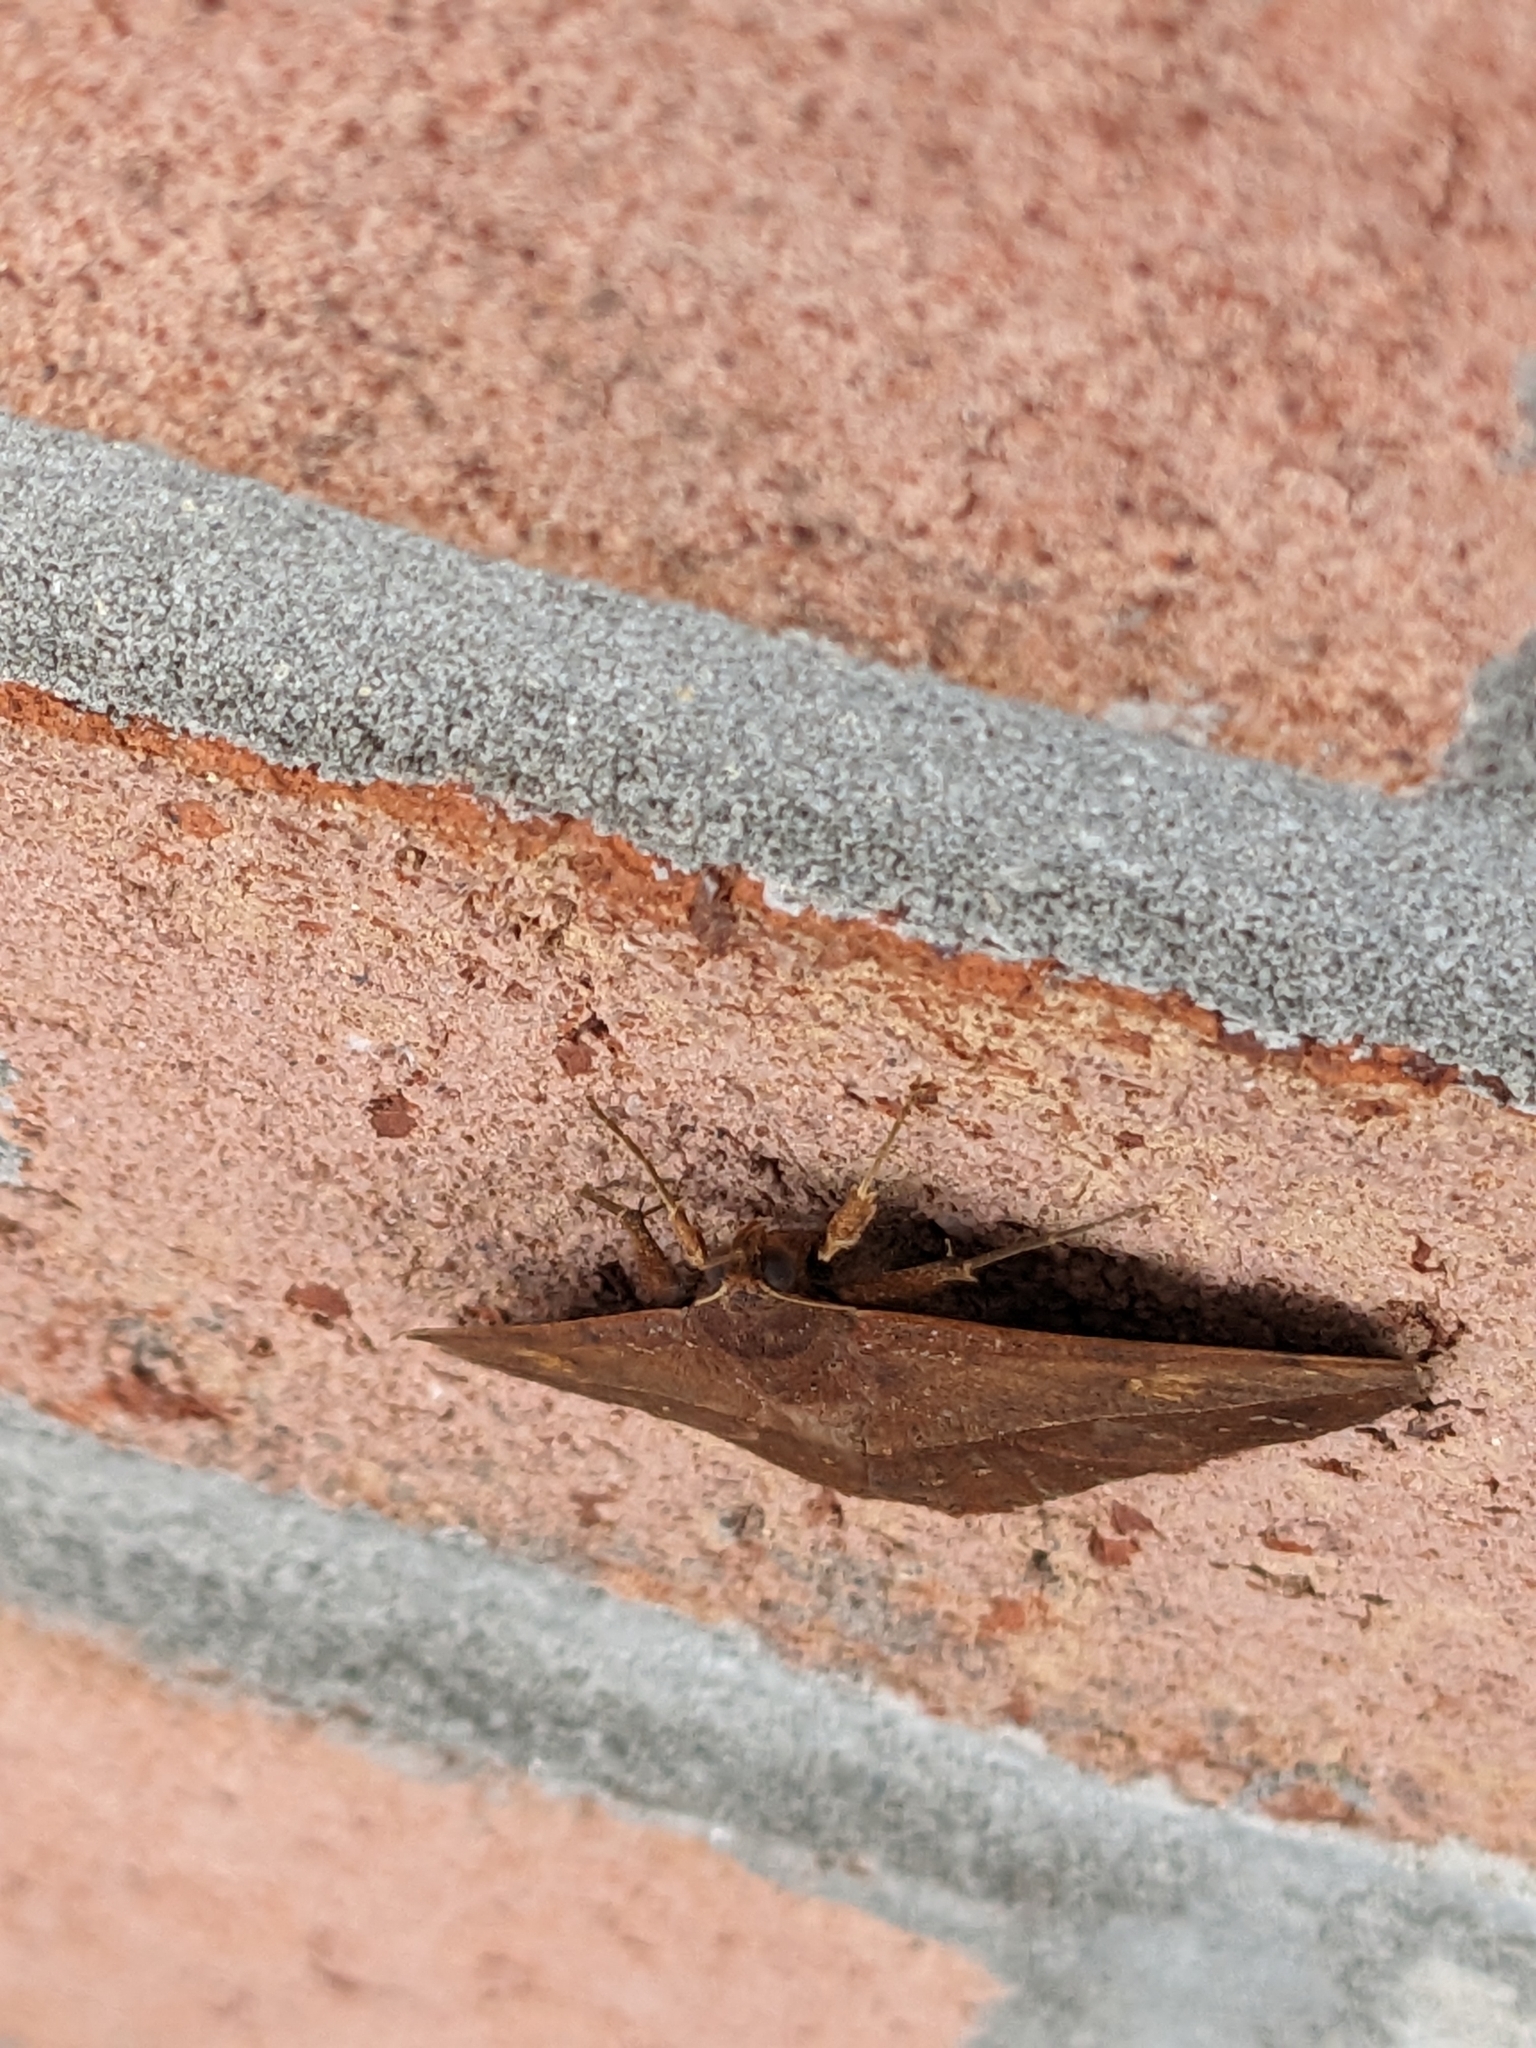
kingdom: Animalia
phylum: Arthropoda
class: Insecta
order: Lepidoptera
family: Erebidae
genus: Anticarsia
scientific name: Anticarsia gemmatalis
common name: Cutworm moth
